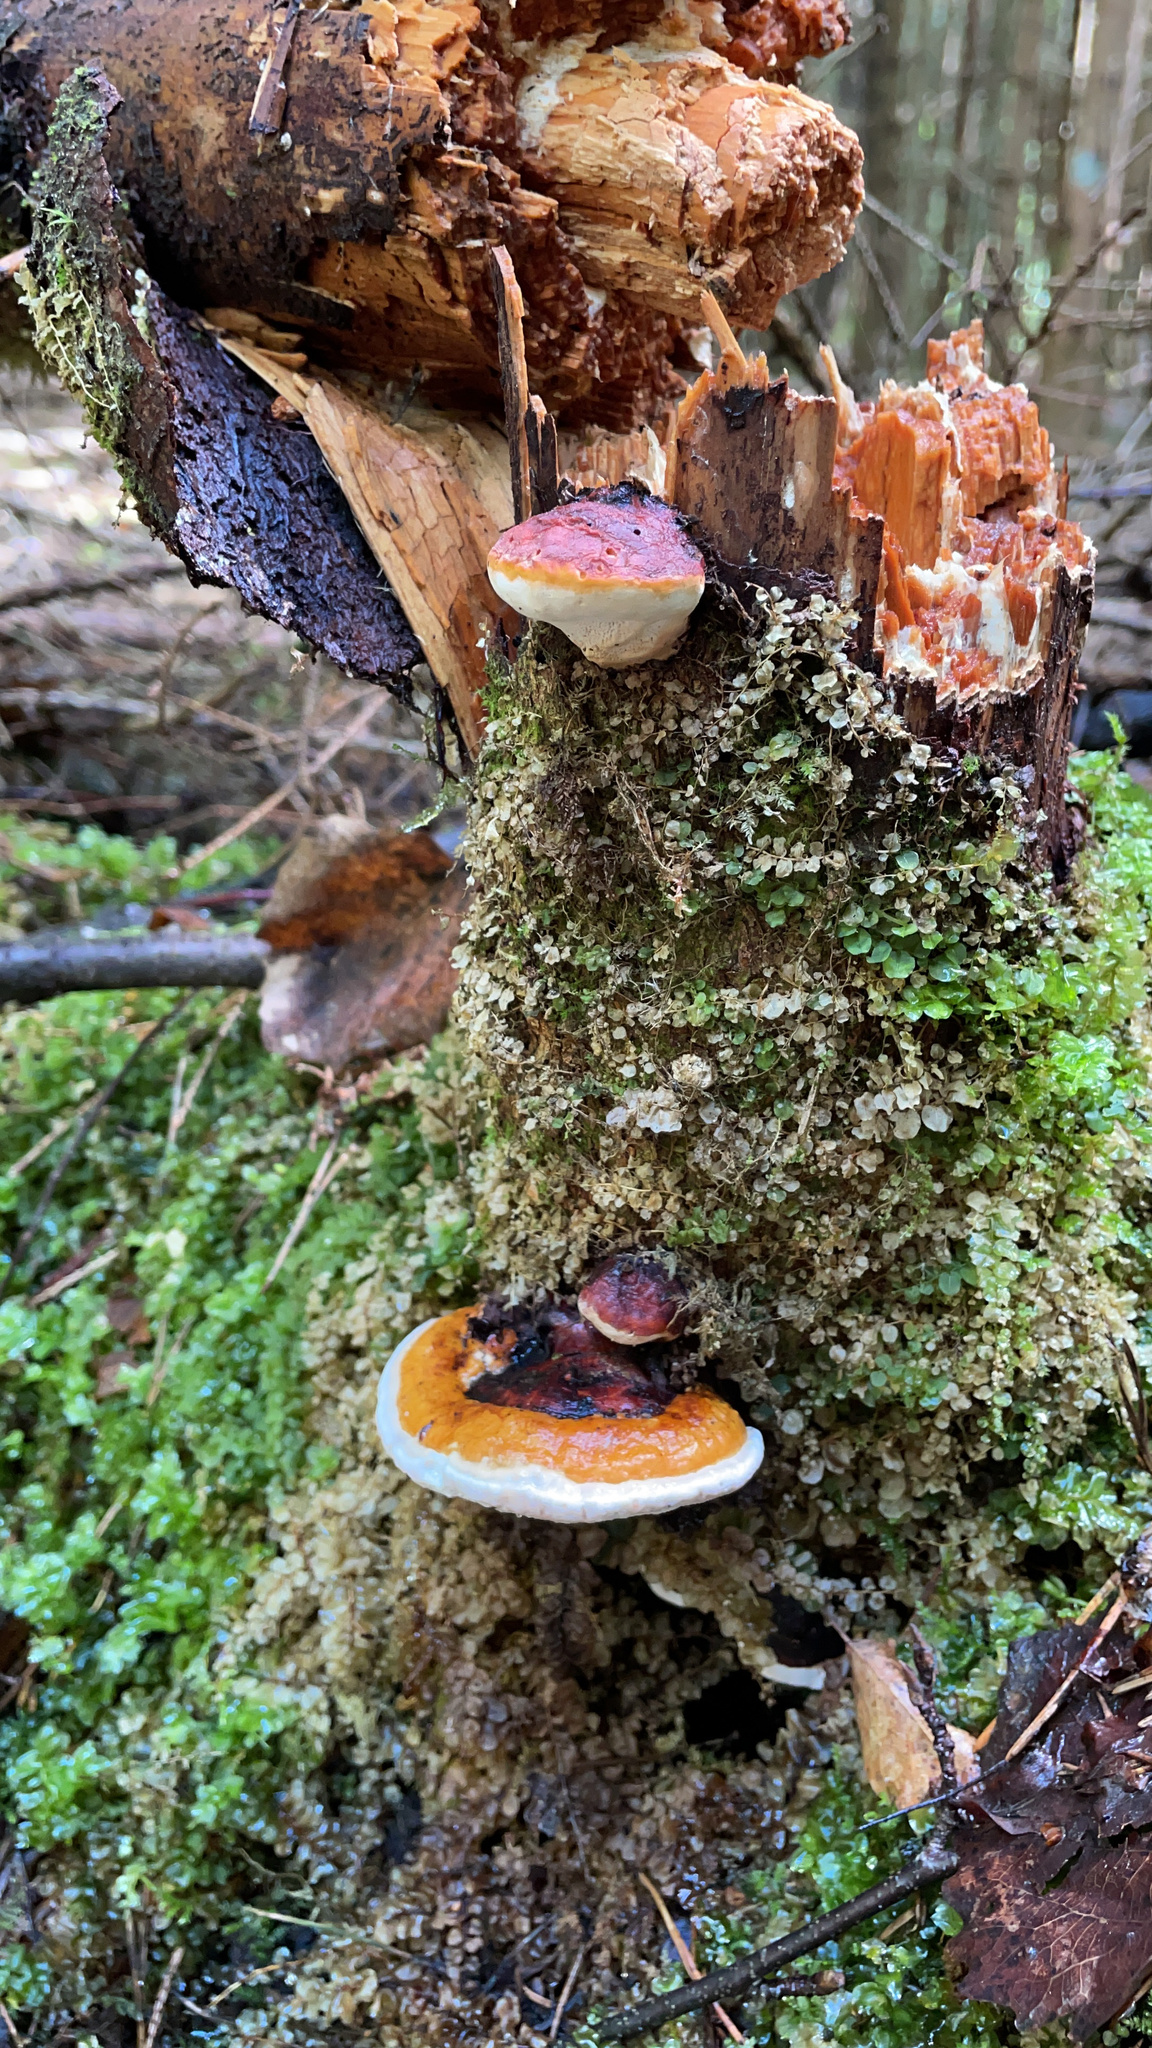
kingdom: Fungi
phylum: Basidiomycota
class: Agaricomycetes
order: Polyporales
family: Fomitopsidaceae
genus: Fomitopsis
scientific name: Fomitopsis pinicola
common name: Red-belted bracket
